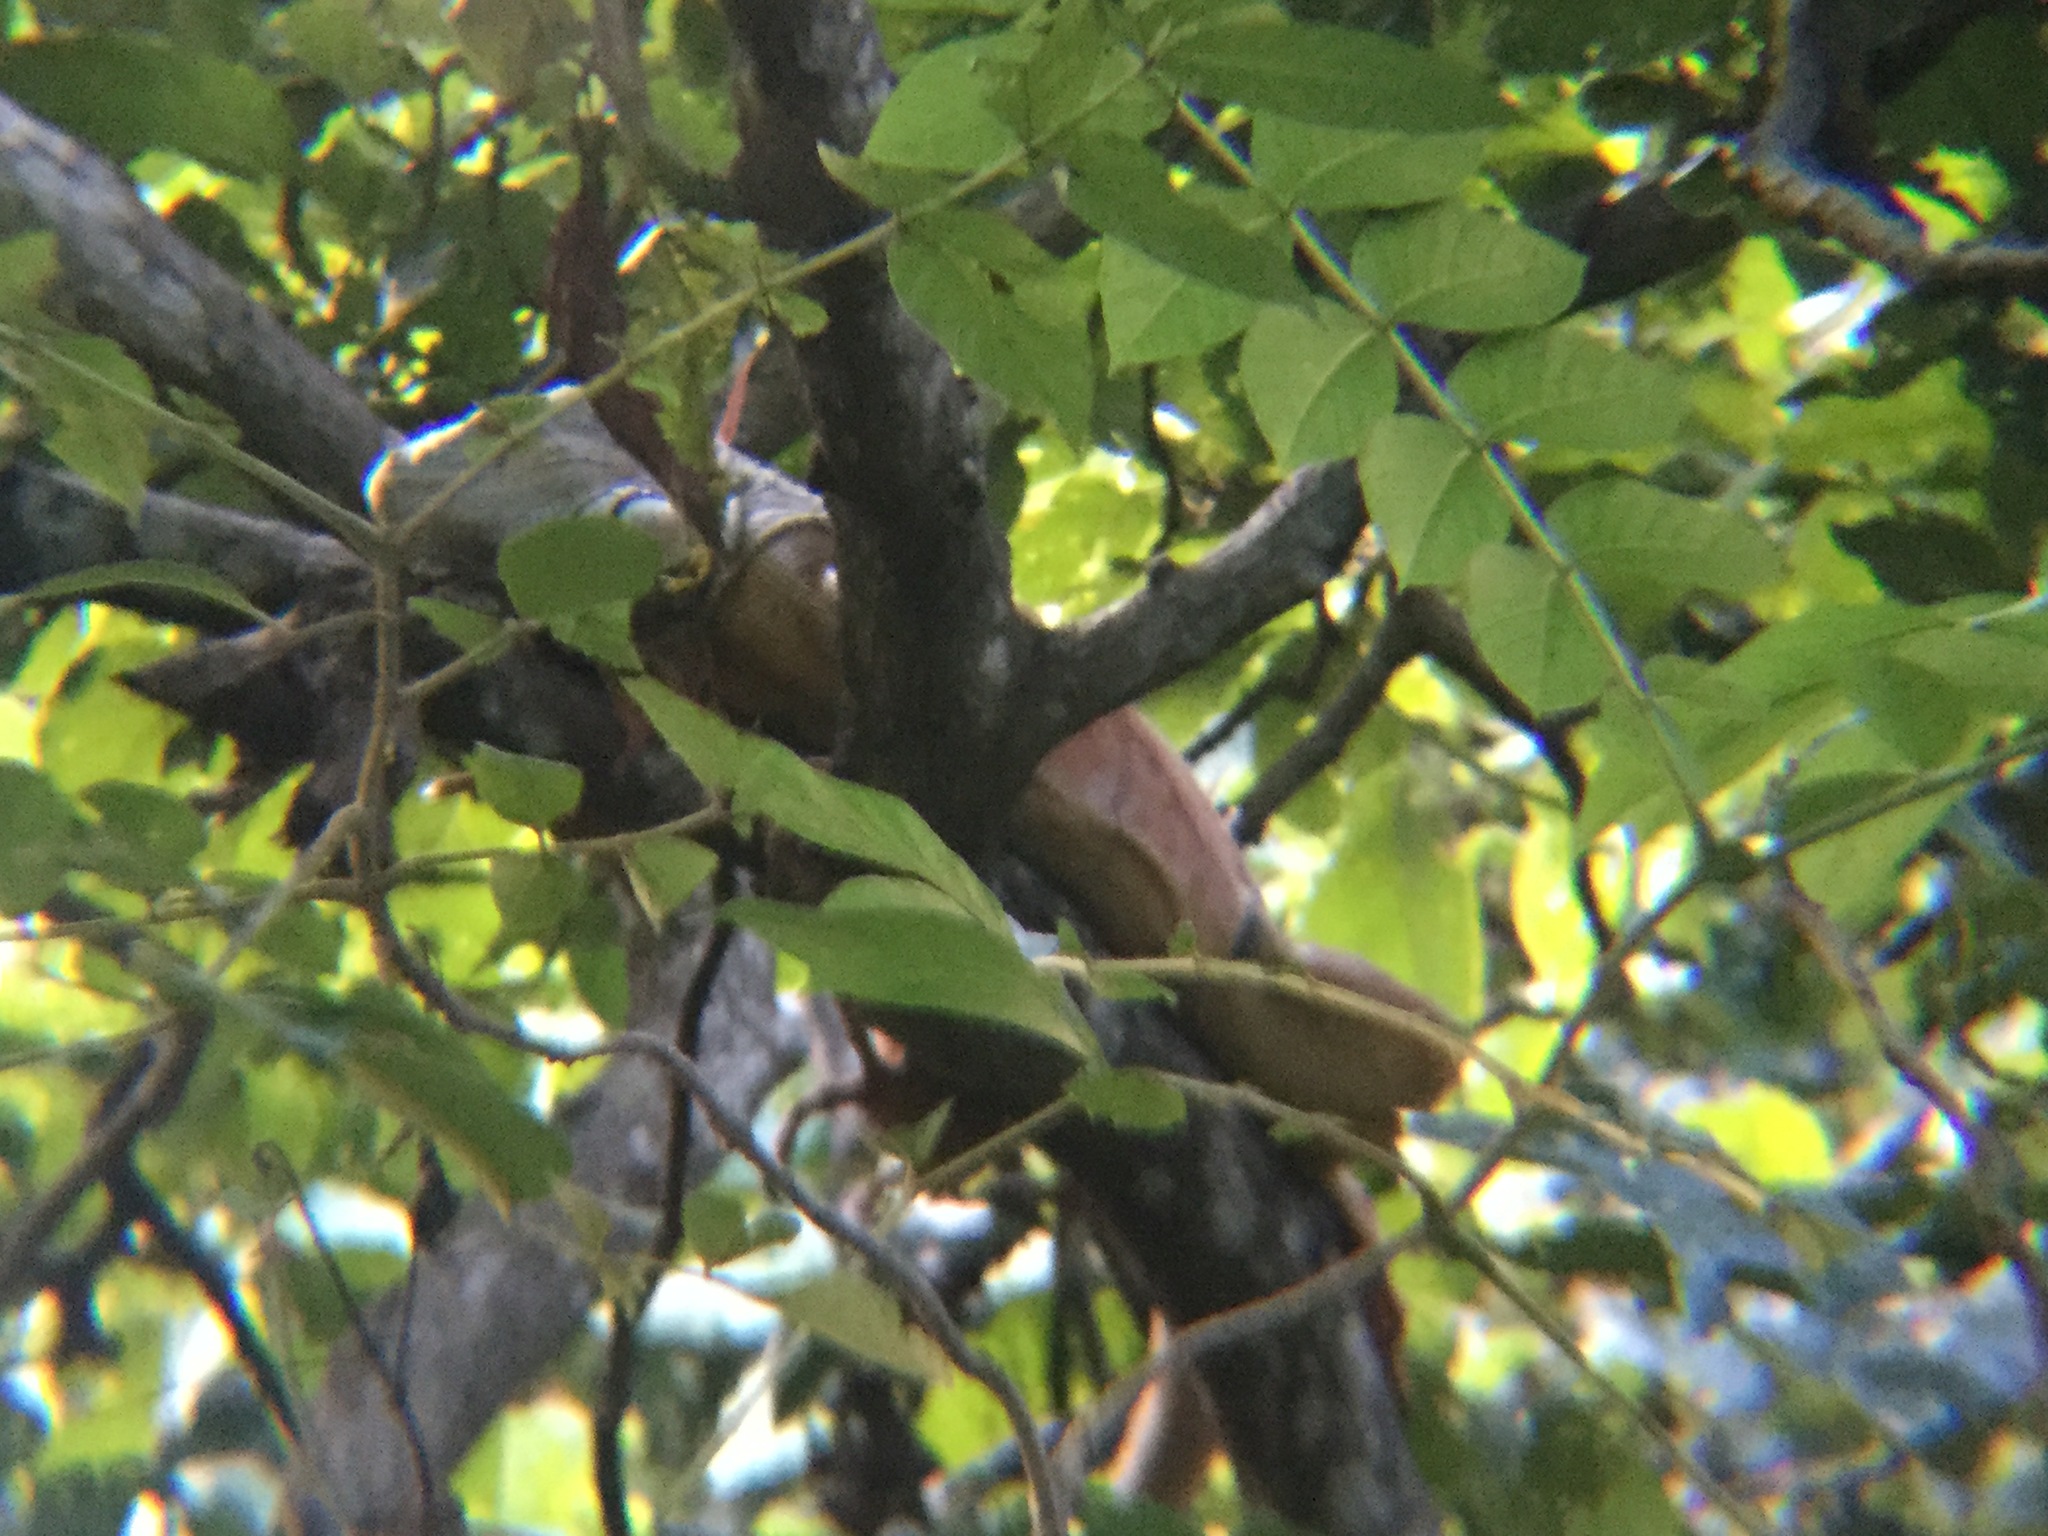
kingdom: Animalia
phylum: Chordata
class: Squamata
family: Iguanidae
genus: Iguana
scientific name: Iguana iguana
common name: Green iguana
